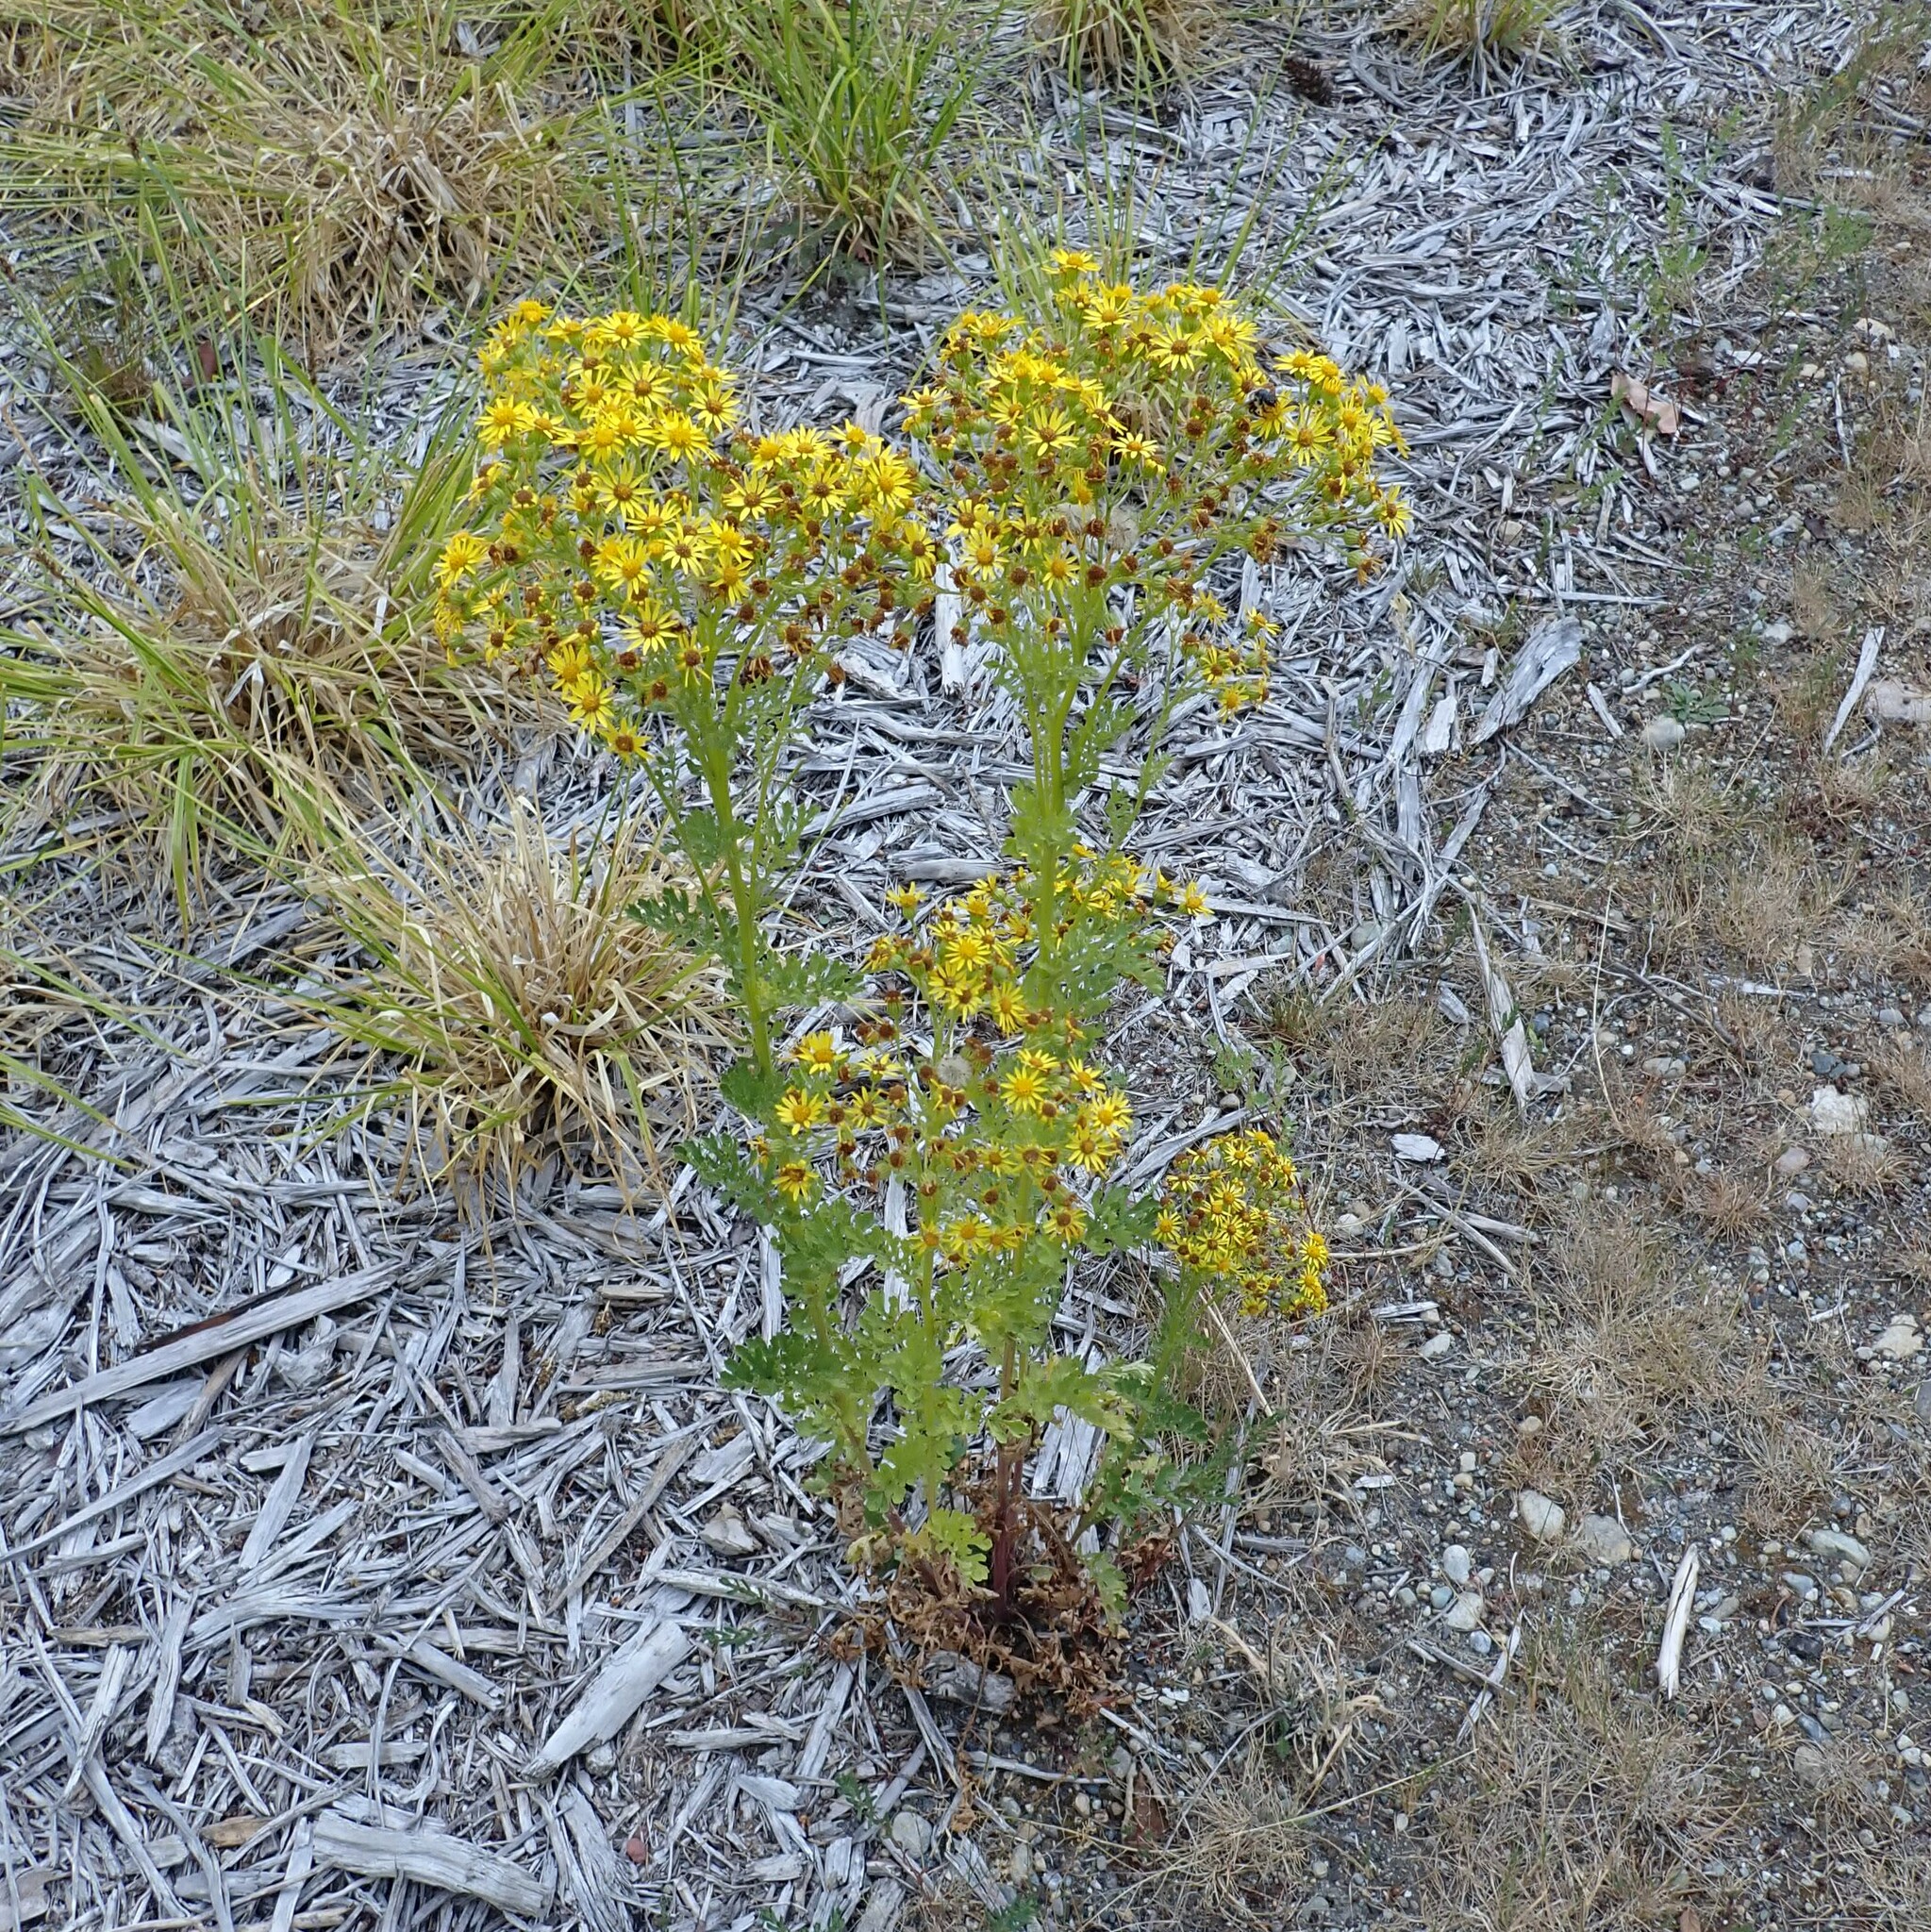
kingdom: Plantae
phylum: Tracheophyta
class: Magnoliopsida
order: Asterales
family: Asteraceae
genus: Jacobaea
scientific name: Jacobaea vulgaris
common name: Stinking willie
